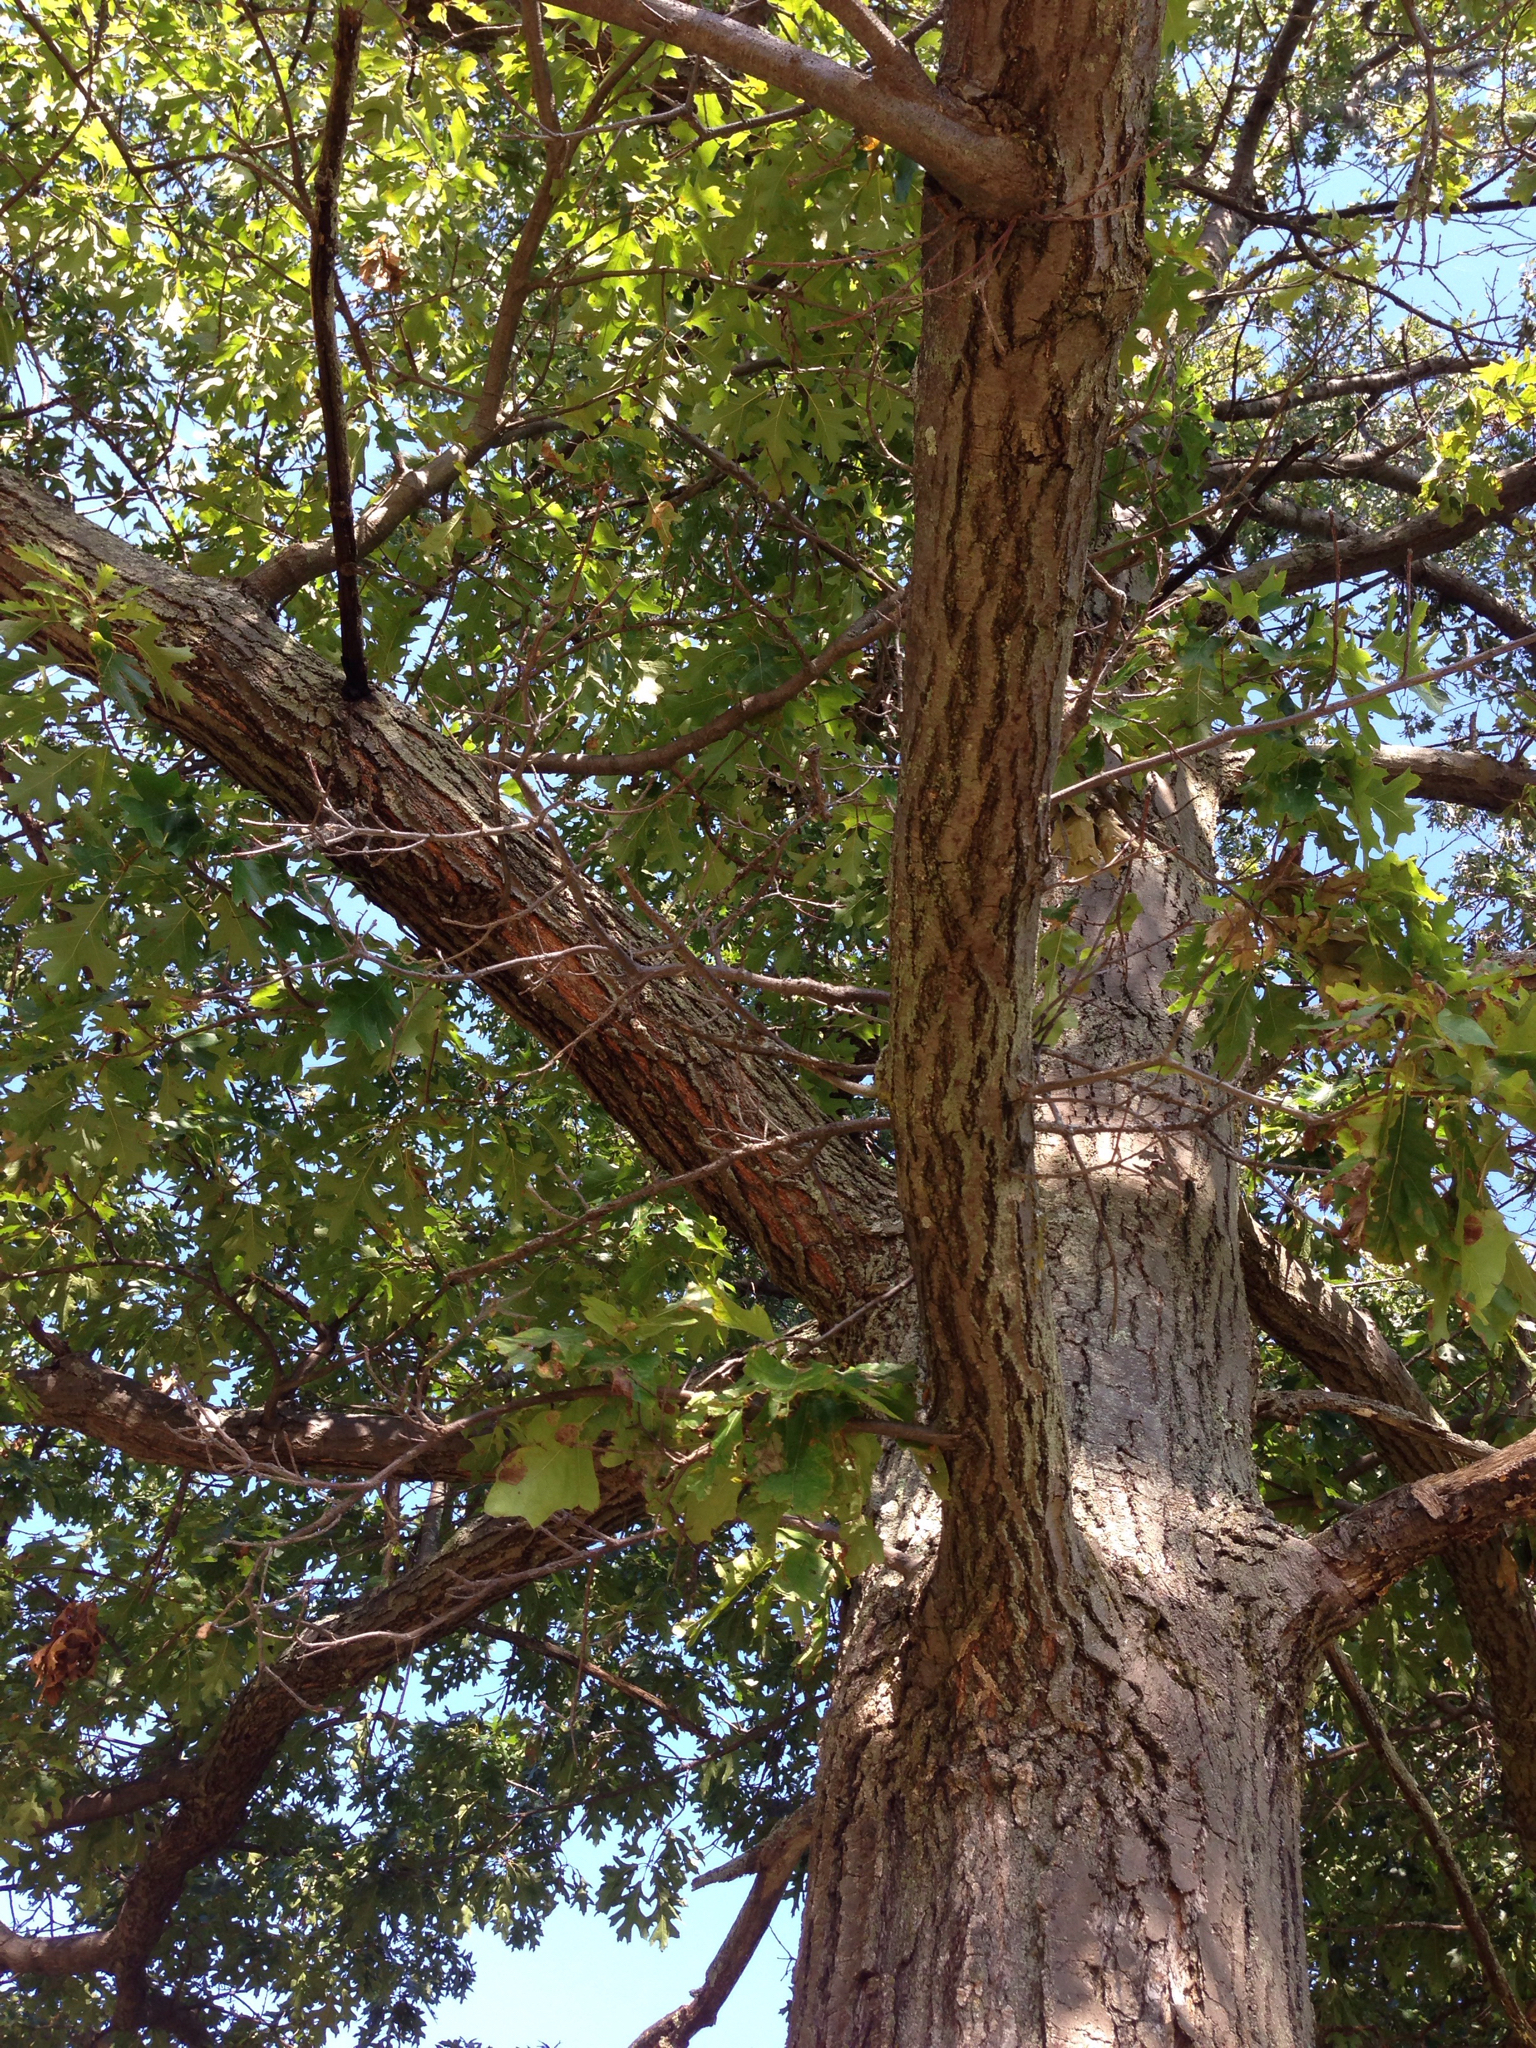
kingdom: Plantae
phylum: Tracheophyta
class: Magnoliopsida
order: Fagales
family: Fagaceae
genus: Quercus
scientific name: Quercus velutina
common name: Black oak
